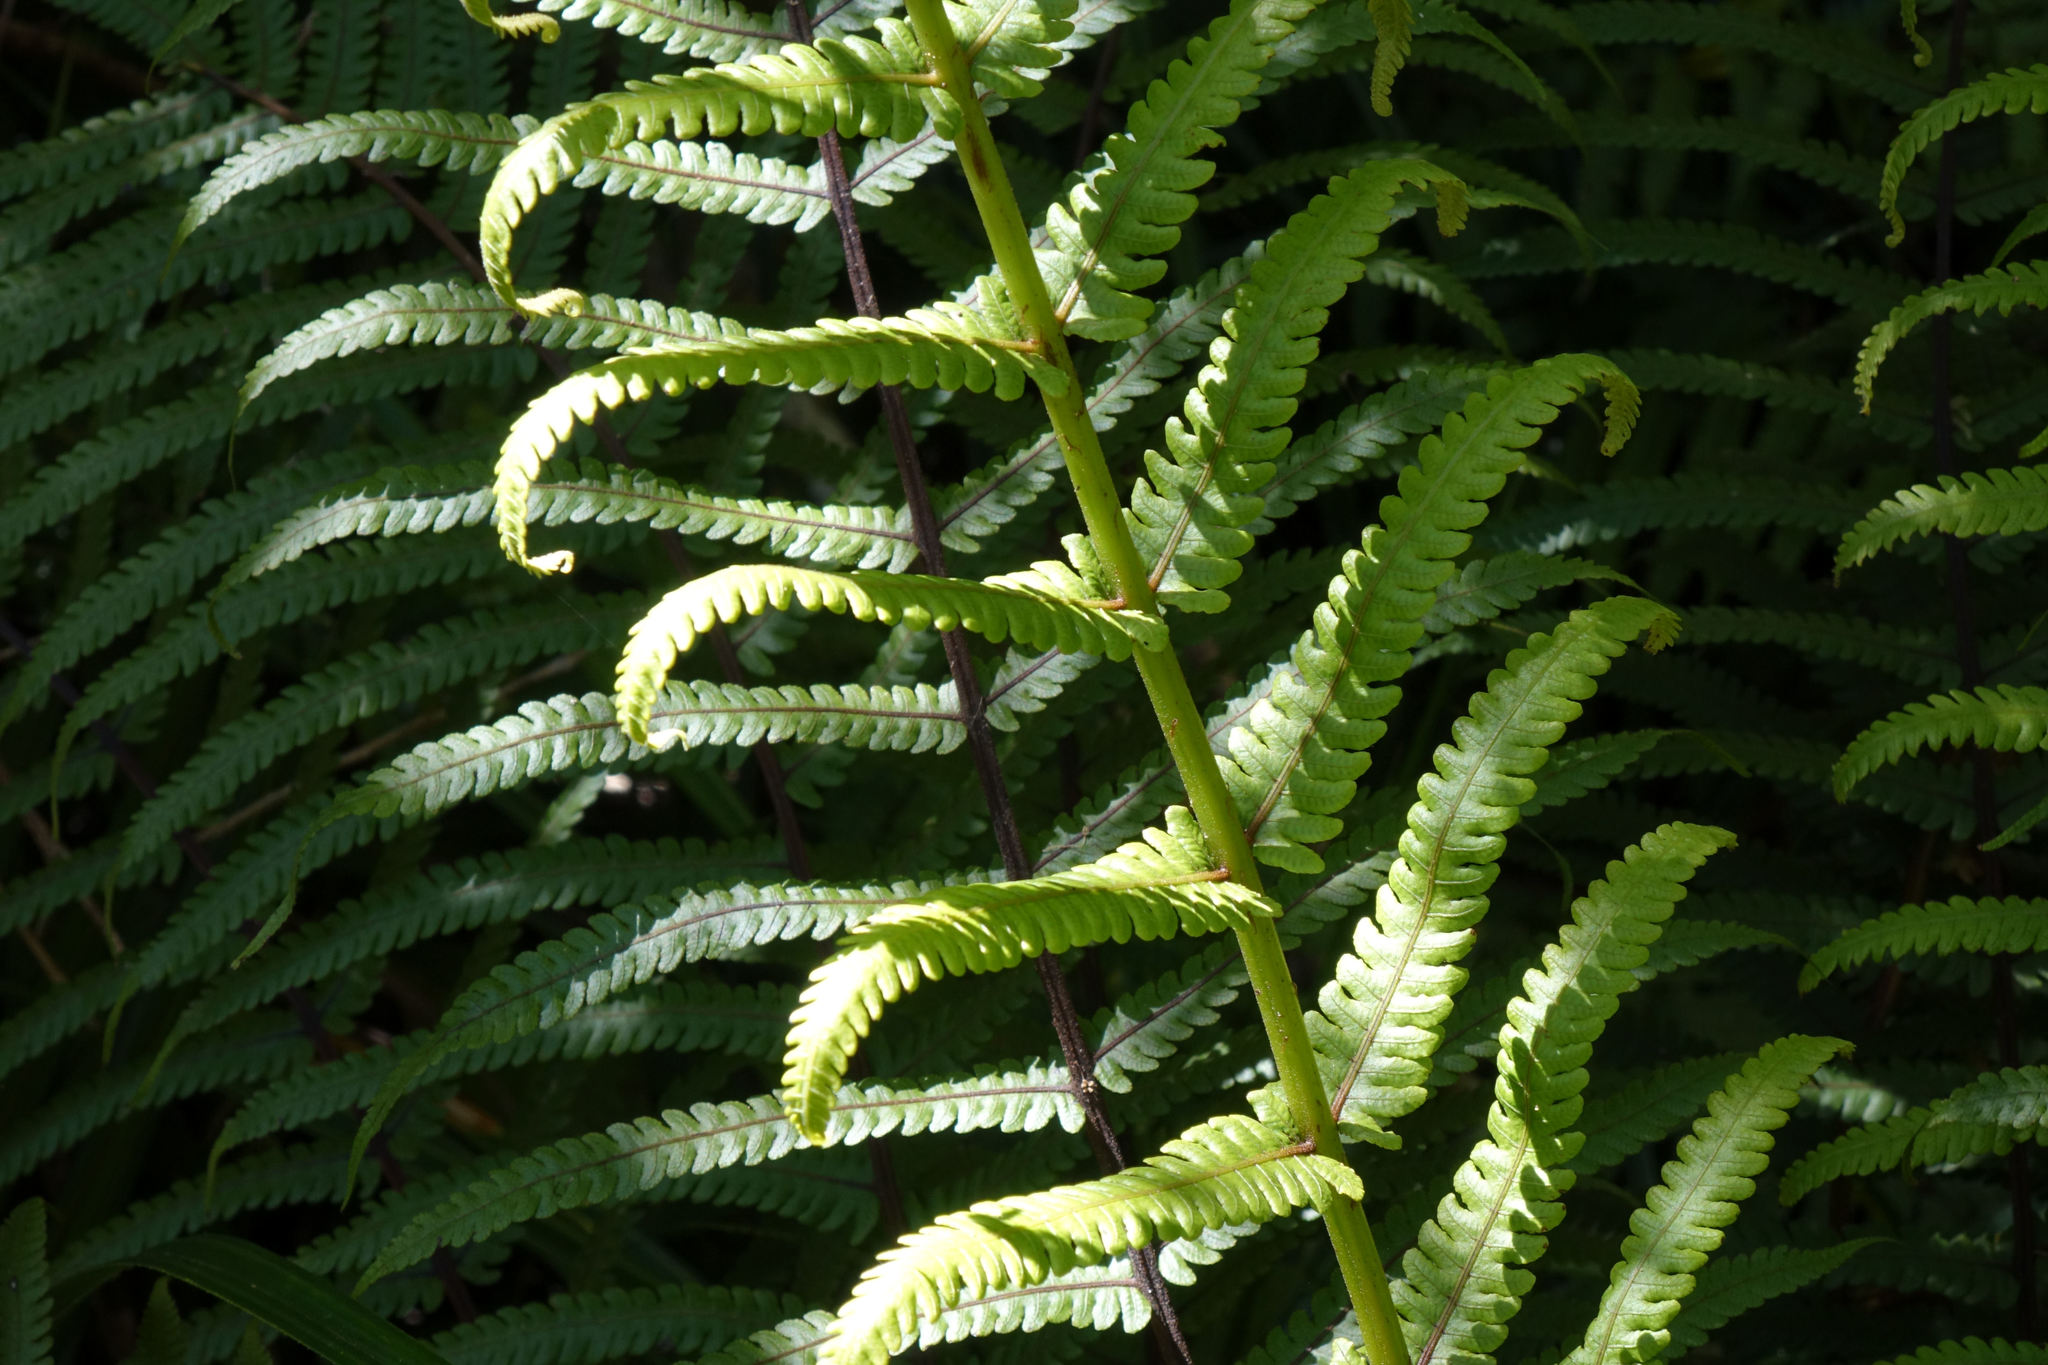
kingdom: Plantae
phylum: Tracheophyta
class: Polypodiopsida
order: Polypodiales
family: Thelypteridaceae
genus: Pakau
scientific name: Pakau pennigera
